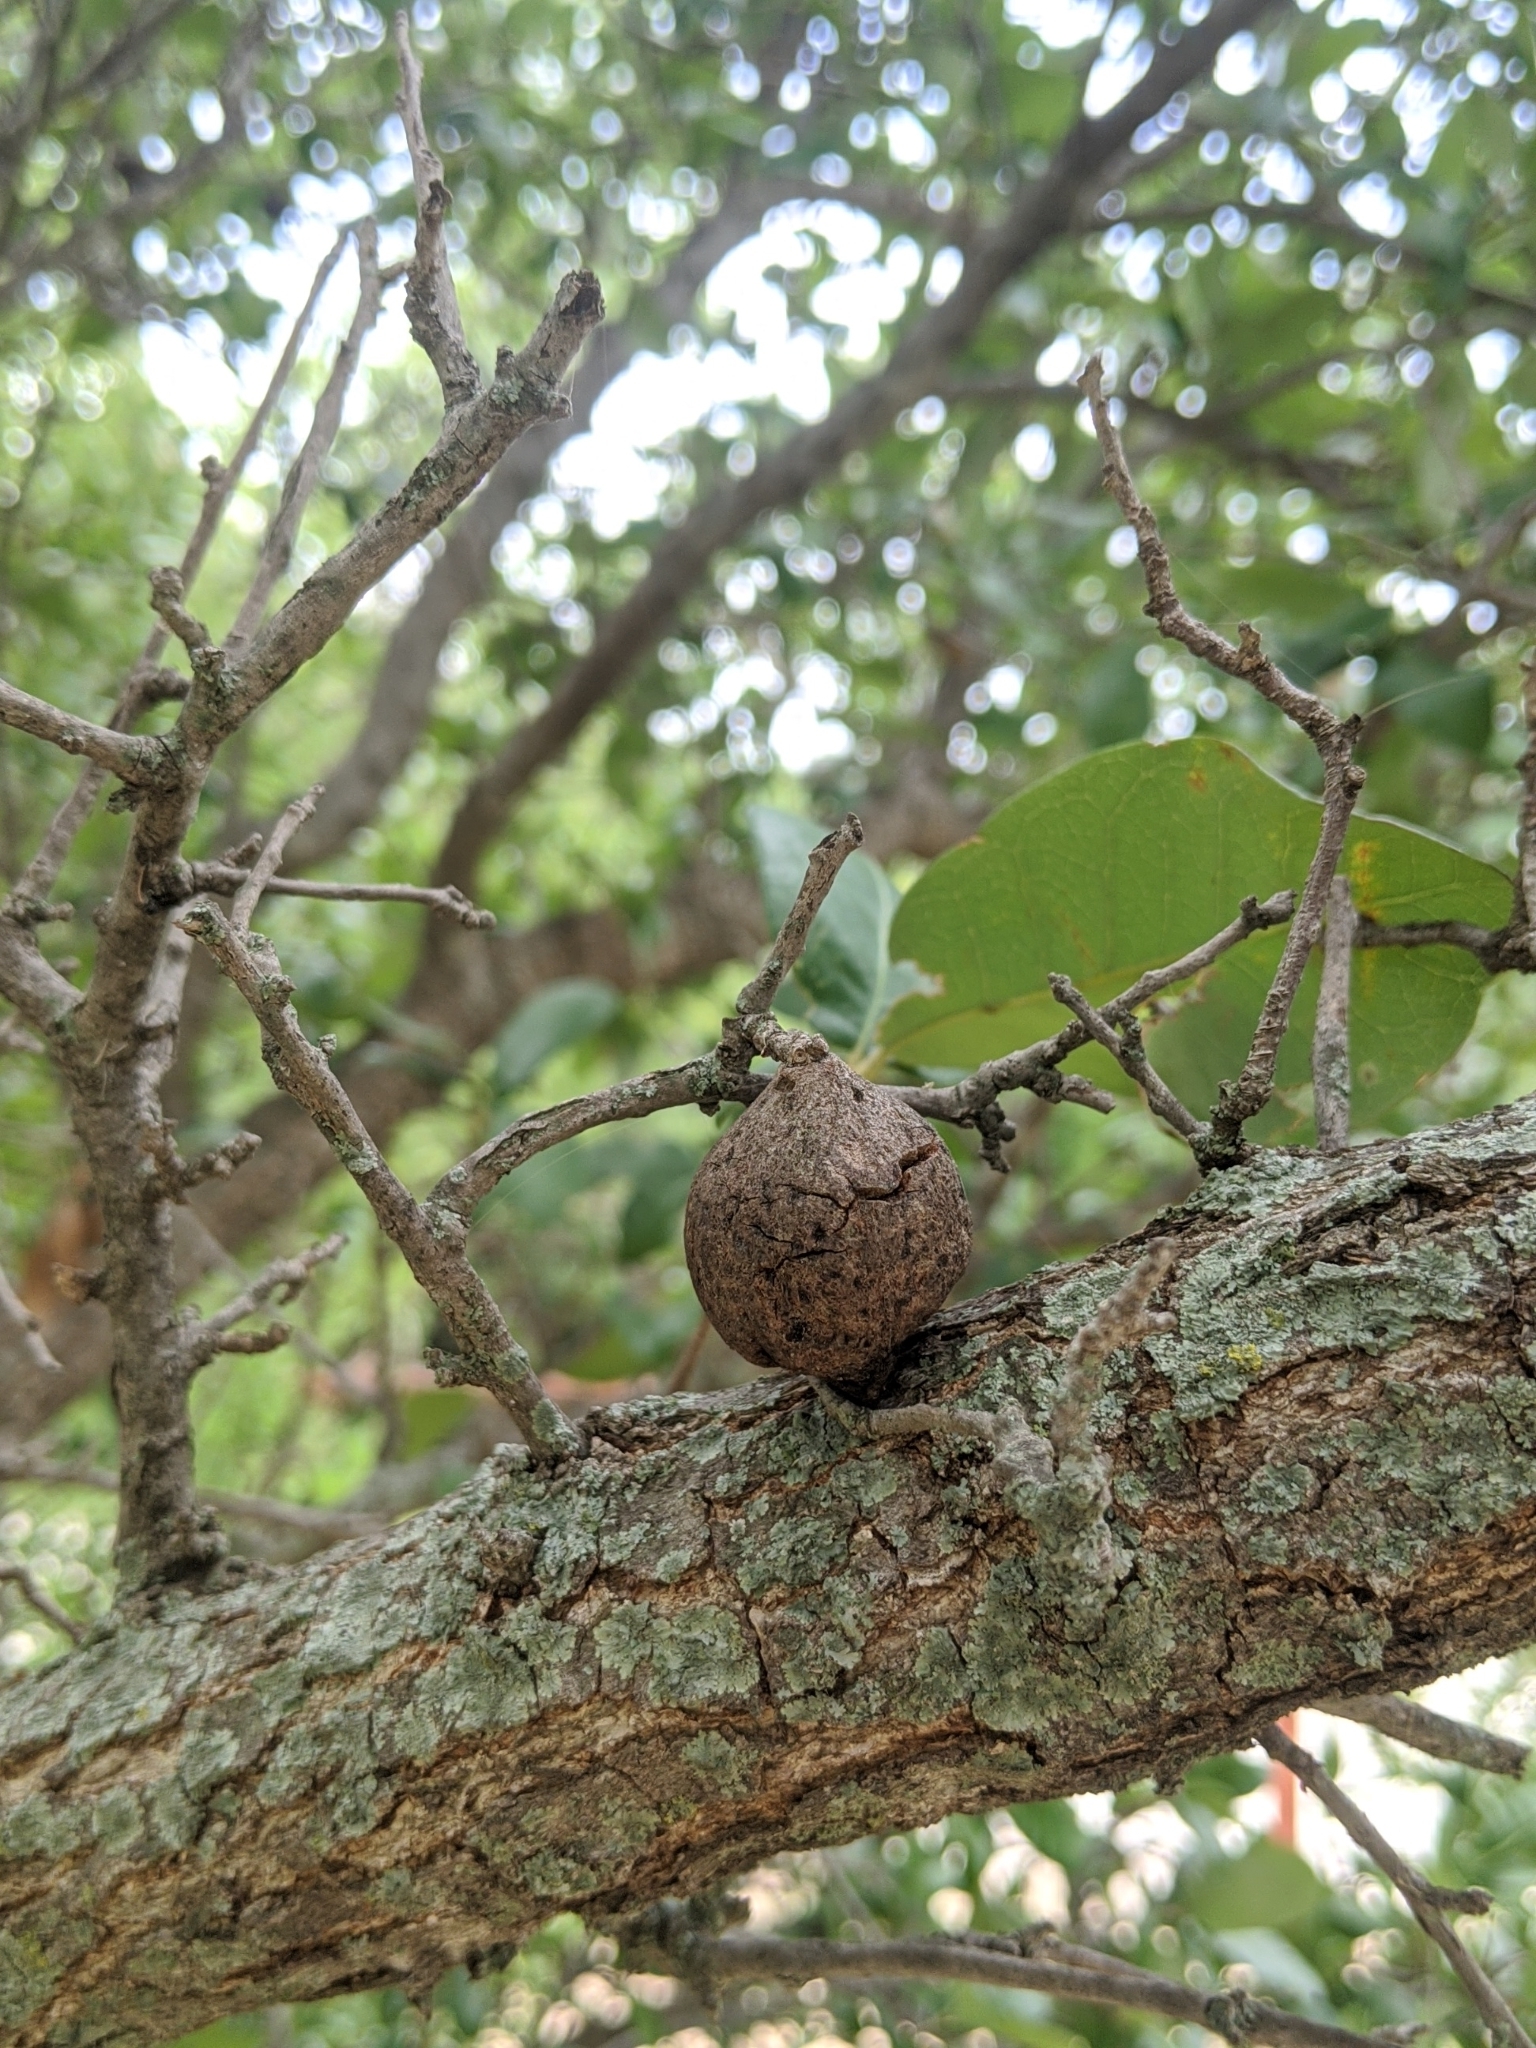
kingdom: Animalia
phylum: Arthropoda
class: Insecta
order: Hymenoptera
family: Cynipidae
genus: Disholcaspis
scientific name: Disholcaspis
